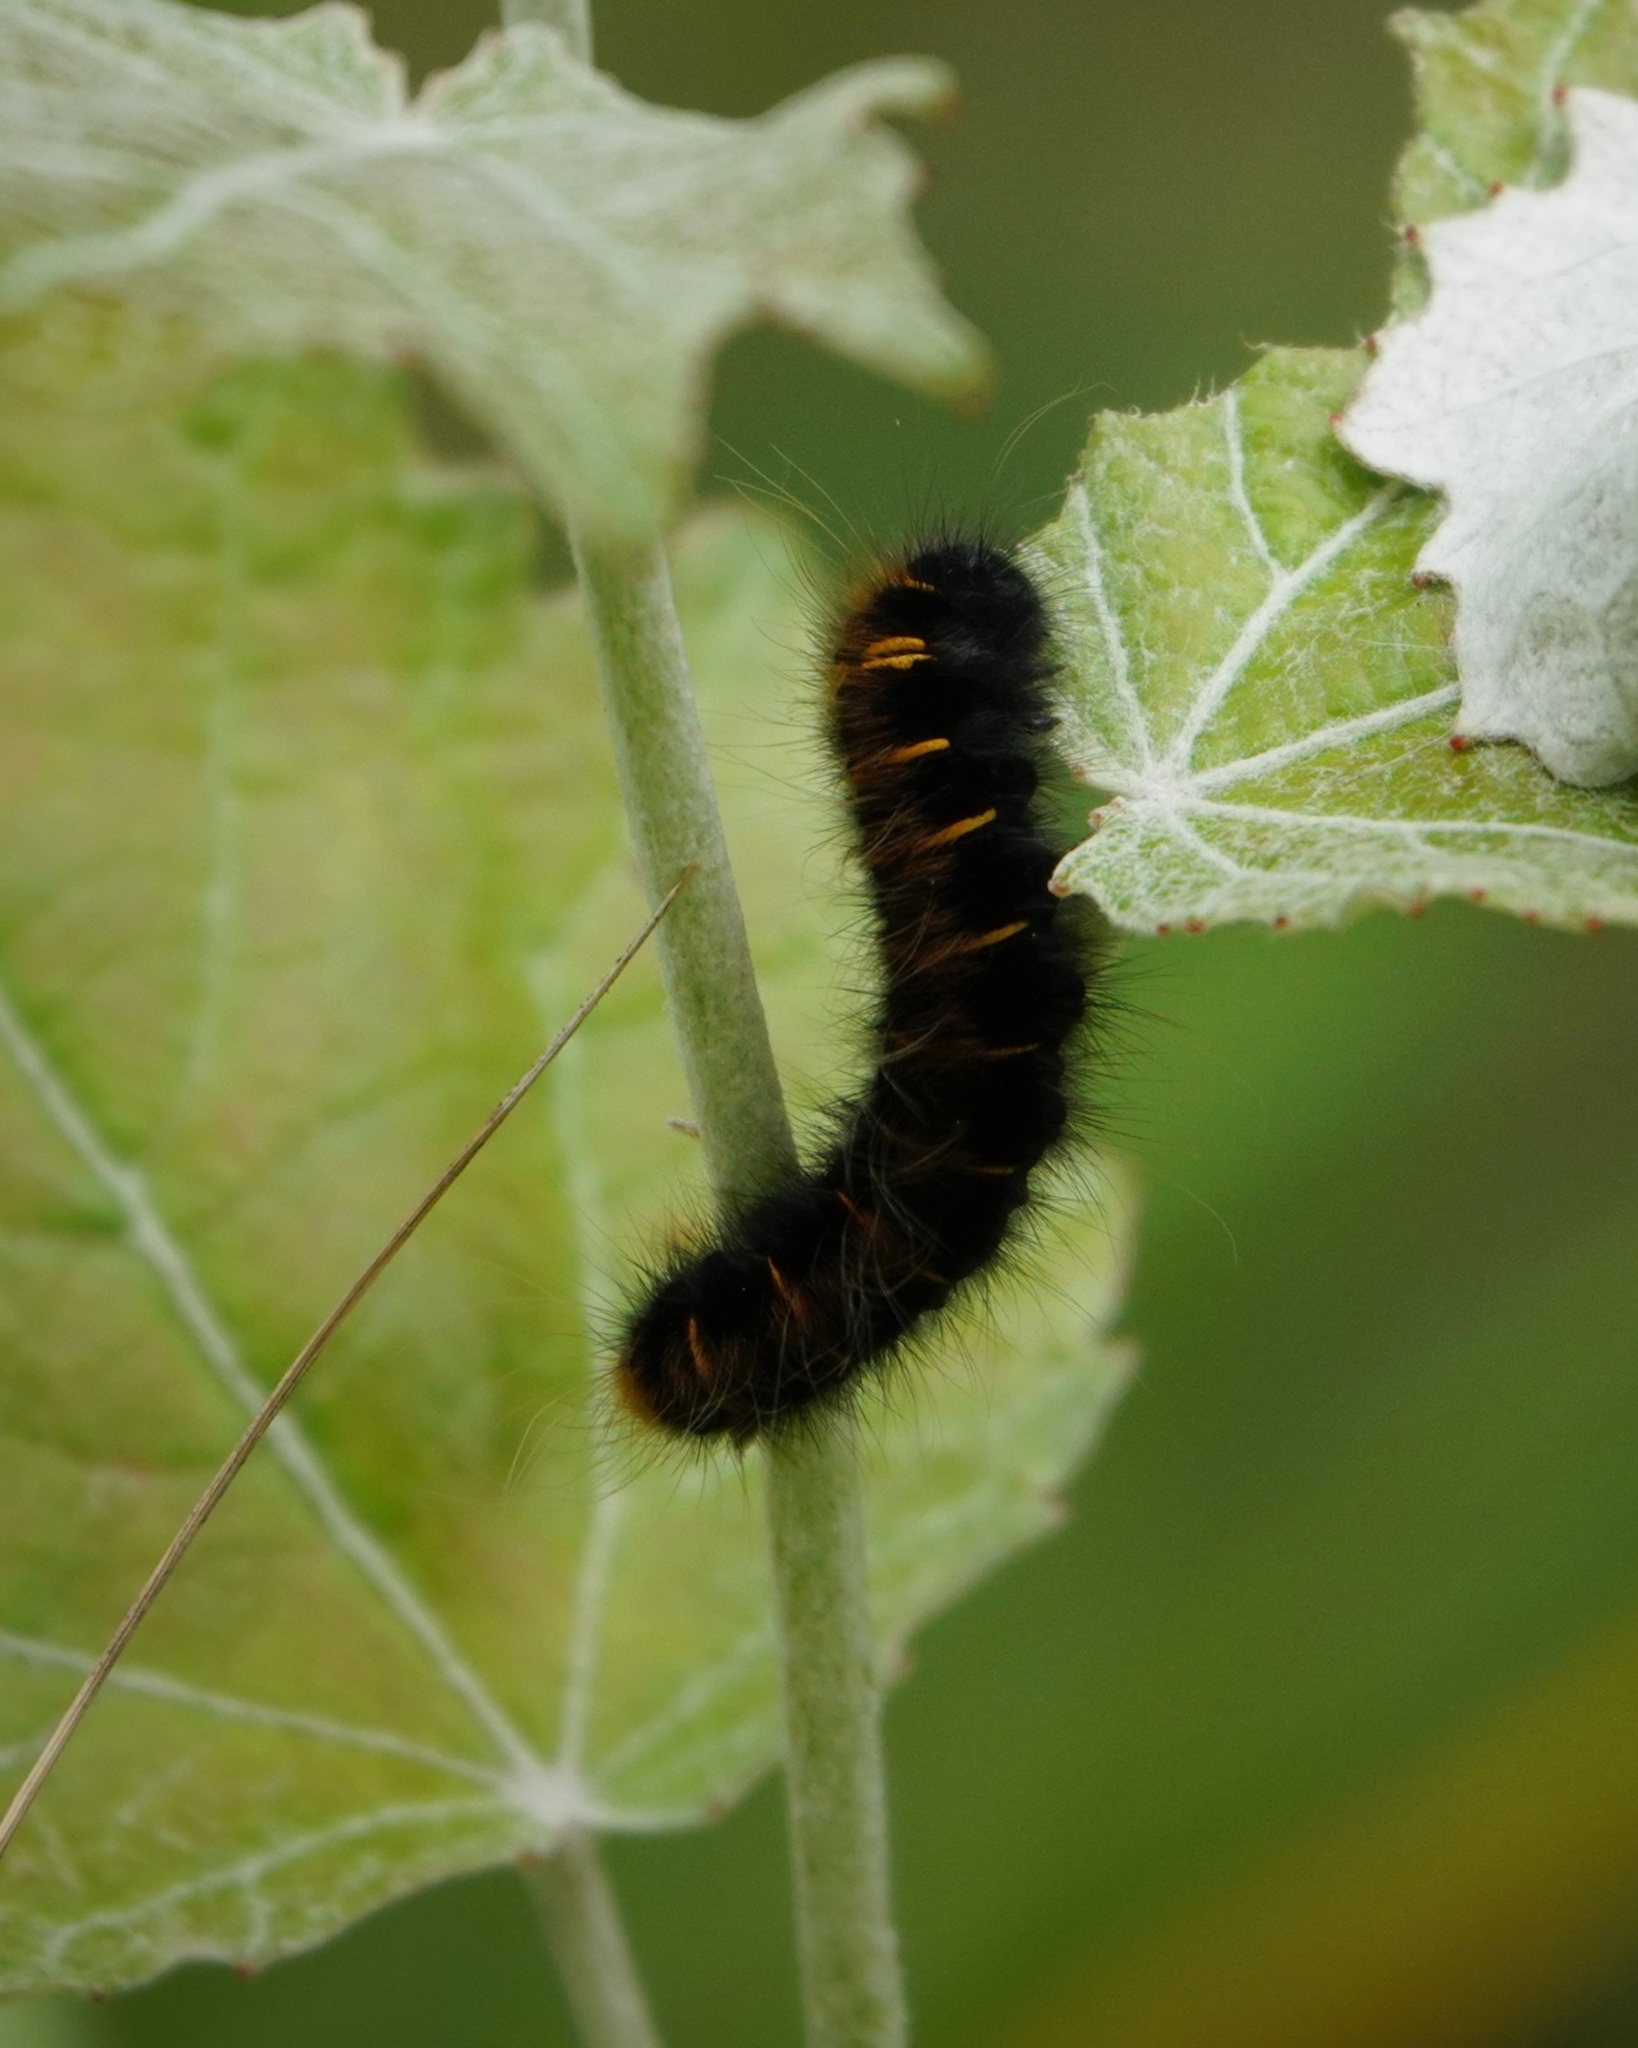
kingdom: Animalia
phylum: Arthropoda
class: Insecta
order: Lepidoptera
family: Lasiocampidae
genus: Macrothylacia
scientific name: Macrothylacia rubi
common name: Fox moth
